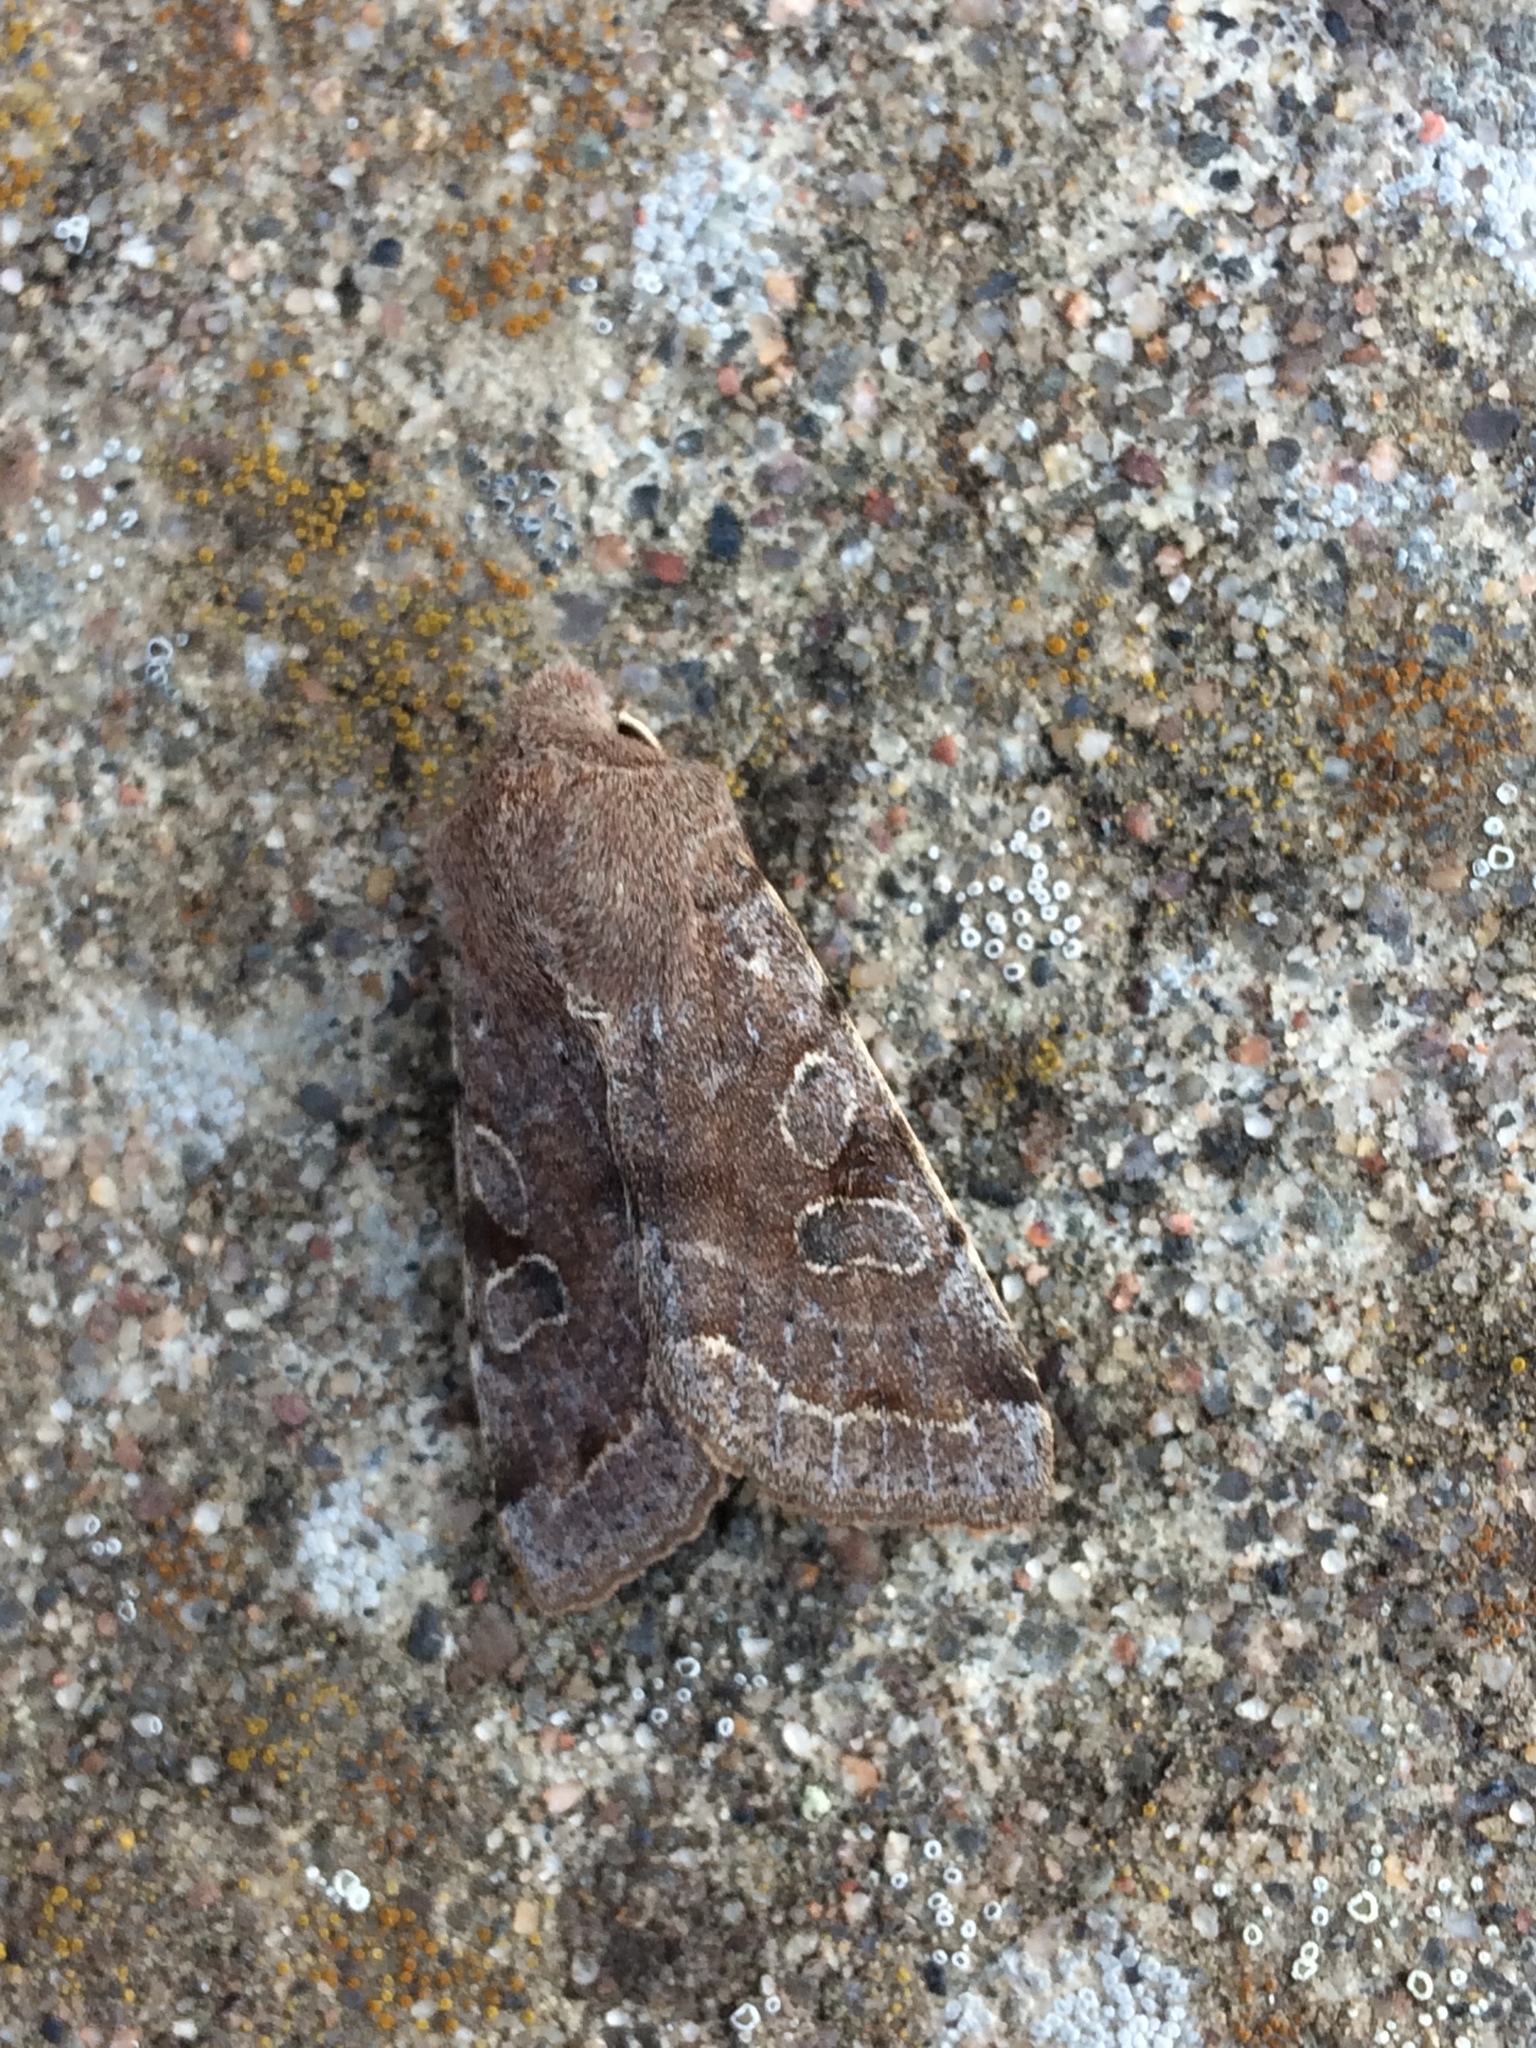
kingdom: Animalia
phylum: Arthropoda
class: Insecta
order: Lepidoptera
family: Noctuidae
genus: Orthosia
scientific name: Orthosia incerta
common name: Clouded drab
